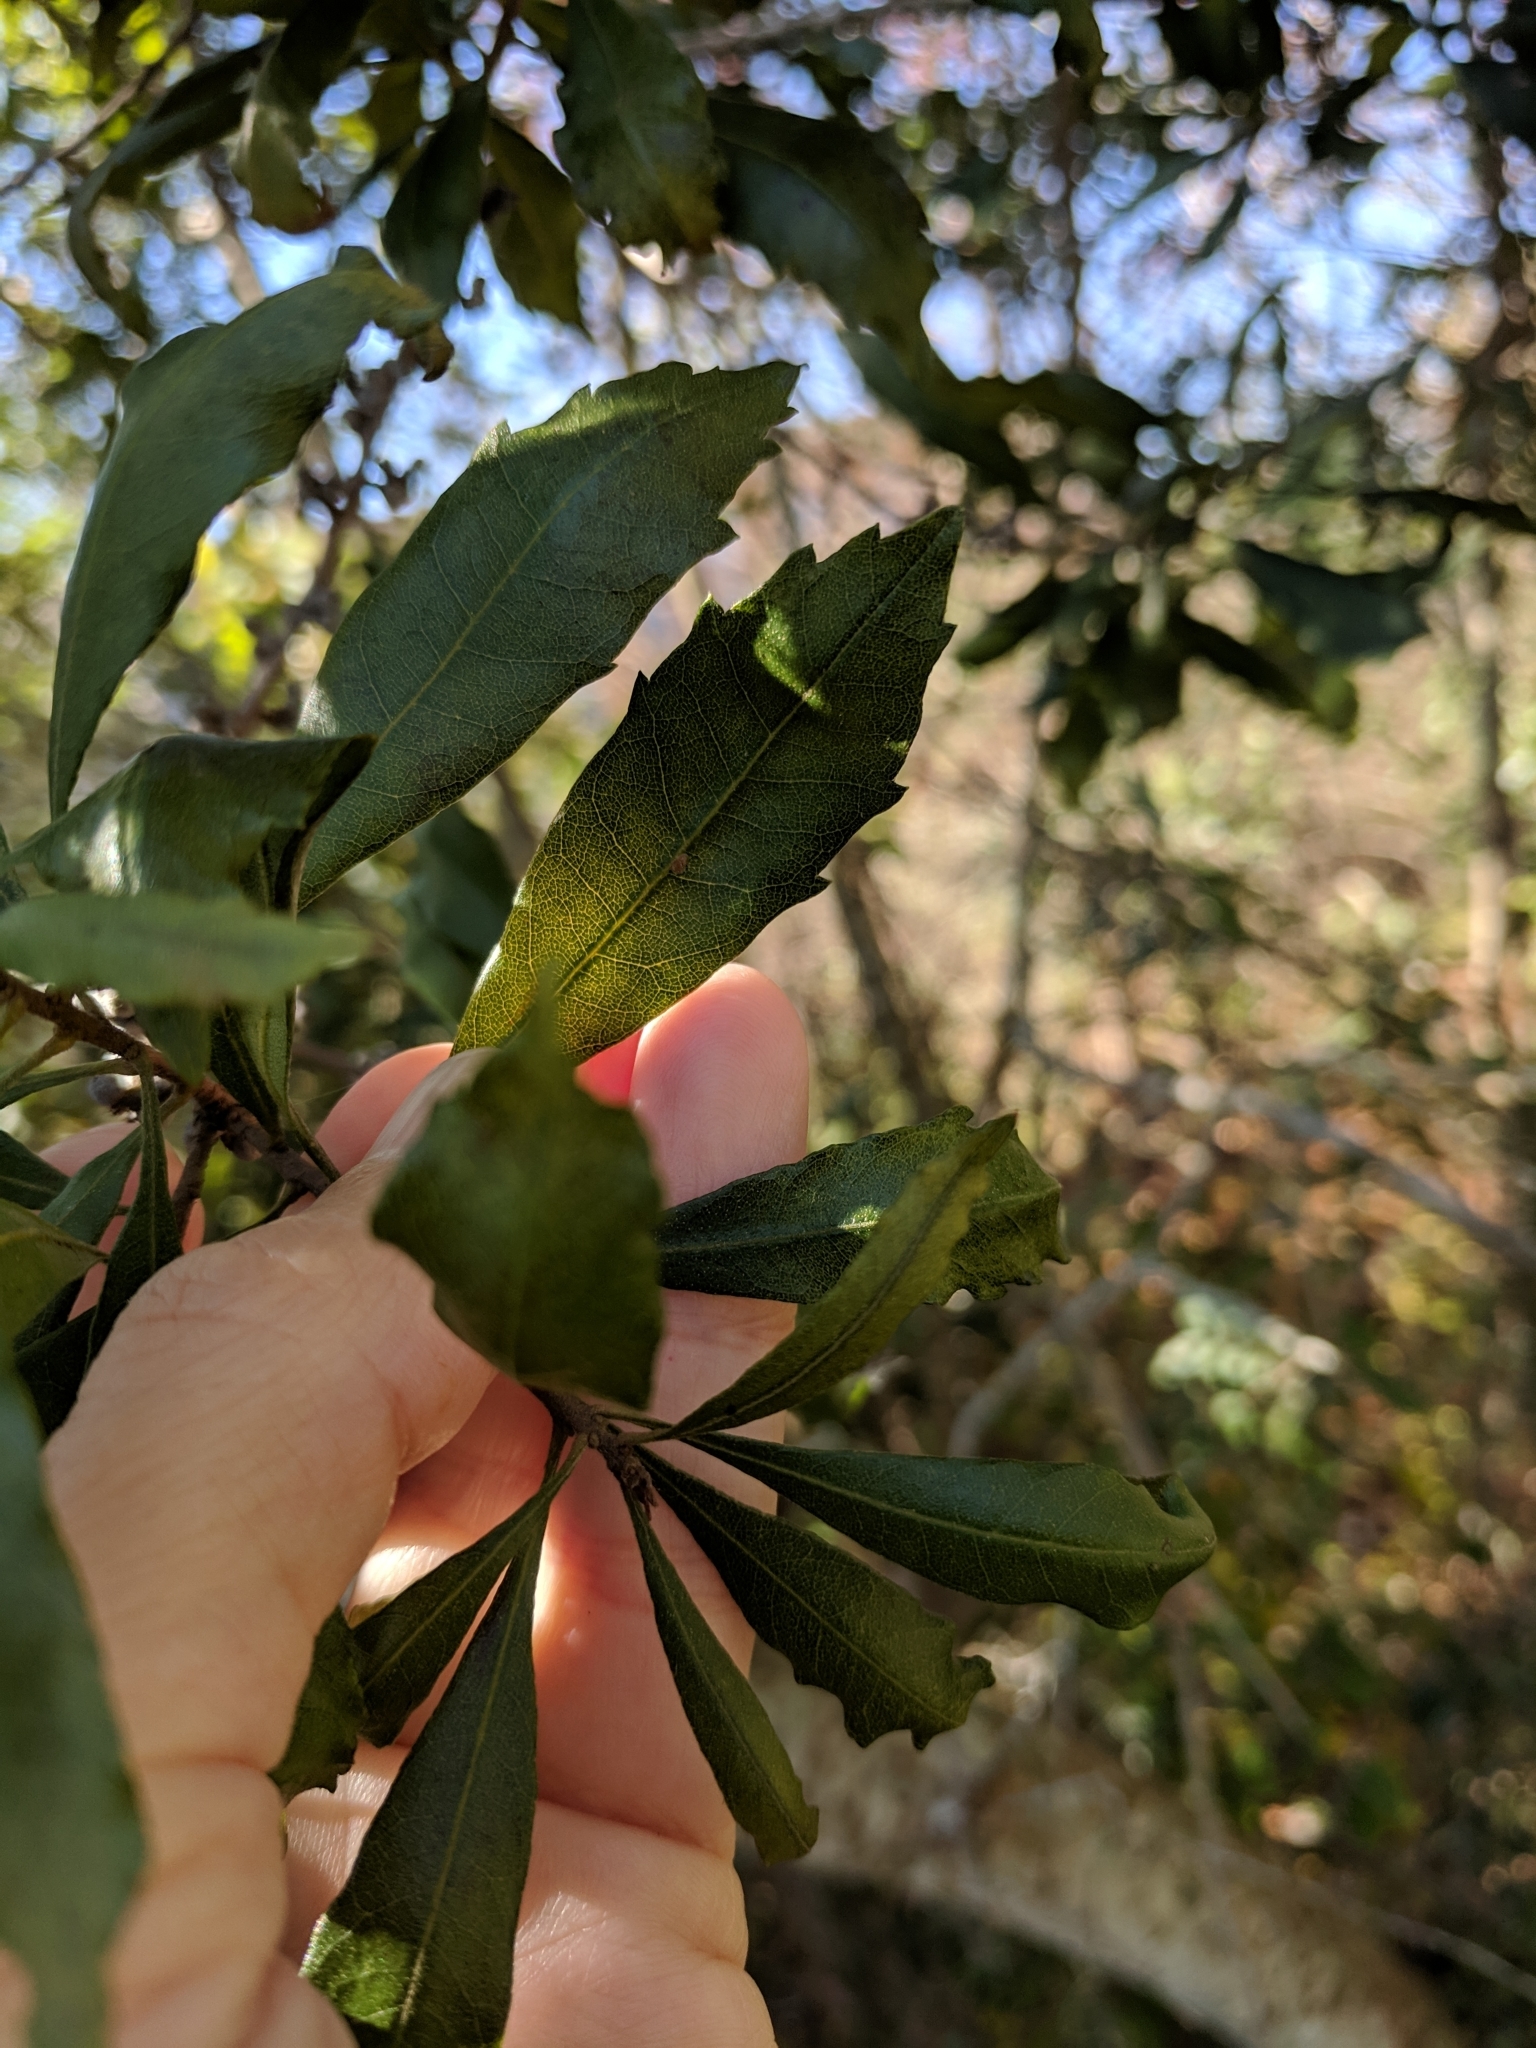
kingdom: Plantae
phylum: Tracheophyta
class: Magnoliopsida
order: Fagales
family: Myricaceae
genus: Morella
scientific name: Morella cerifera
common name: Wax myrtle
